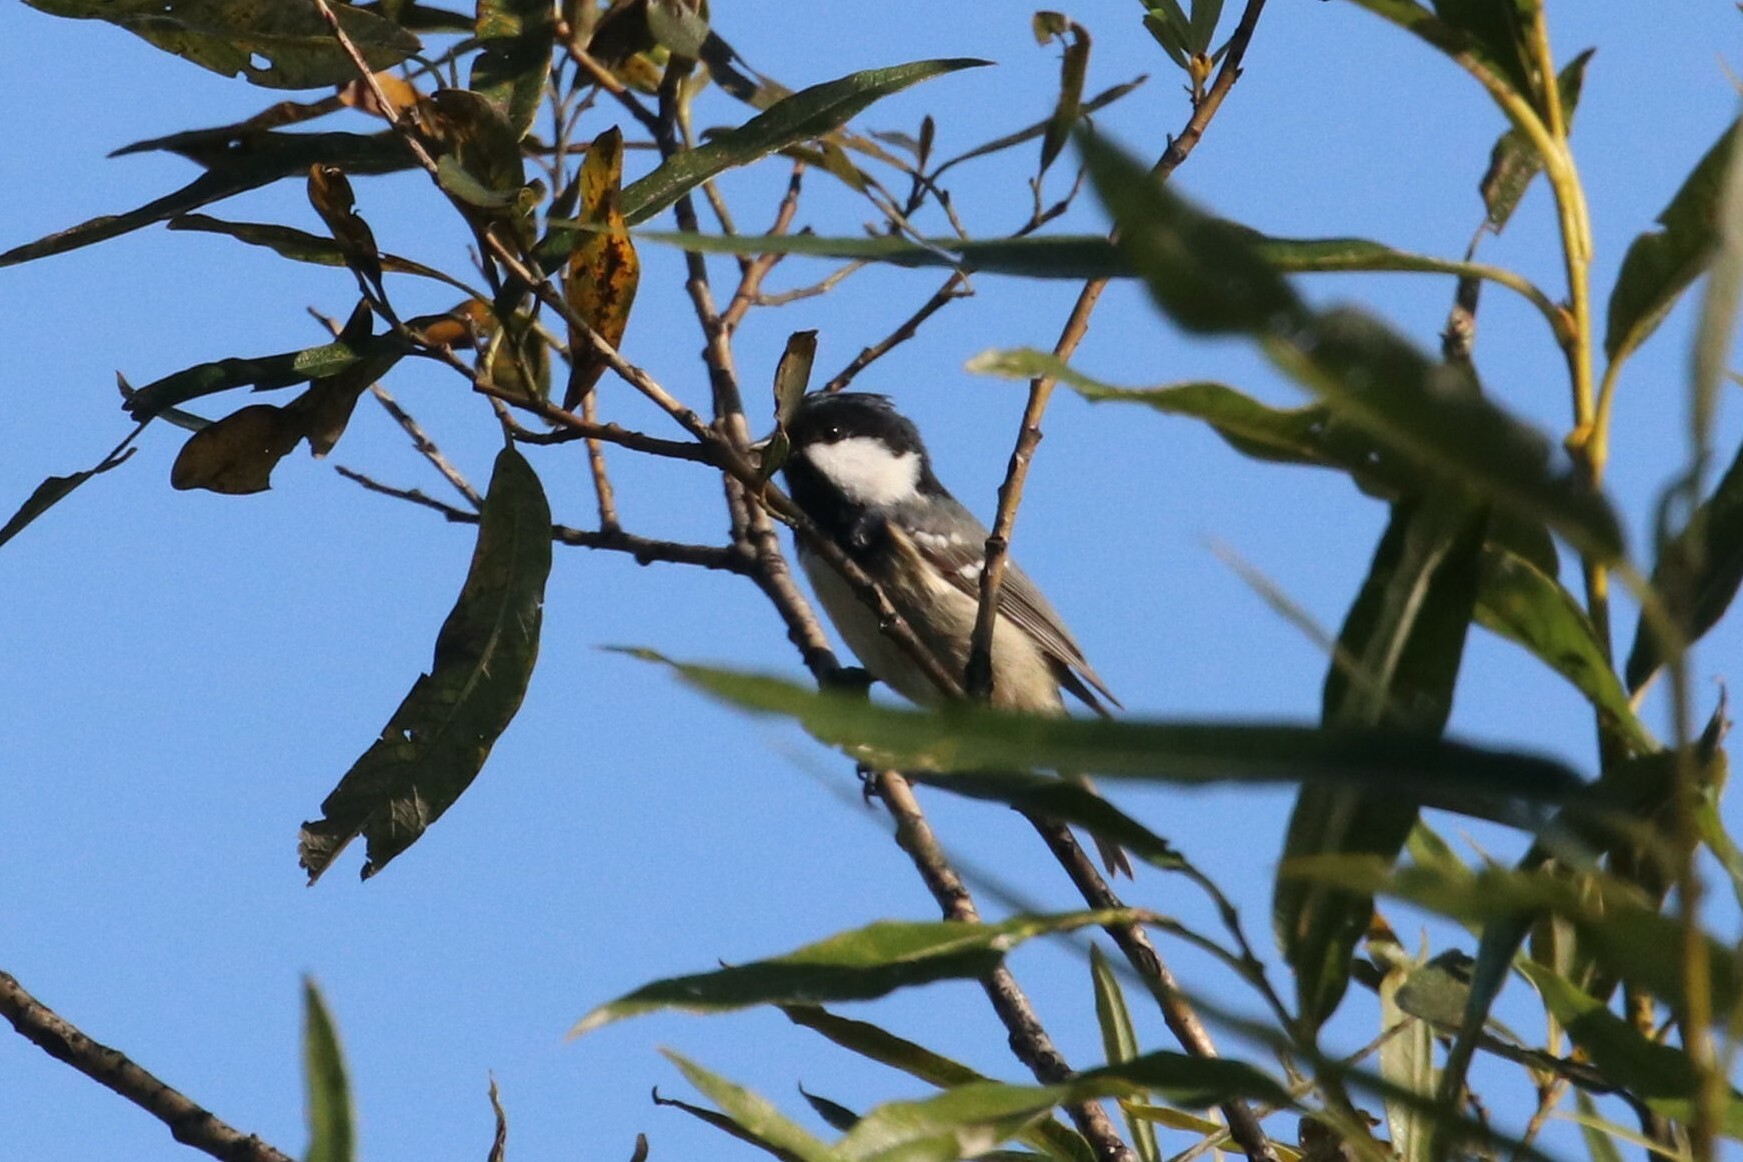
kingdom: Animalia
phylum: Chordata
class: Aves
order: Passeriformes
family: Paridae
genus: Periparus
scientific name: Periparus ater
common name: Coal tit
